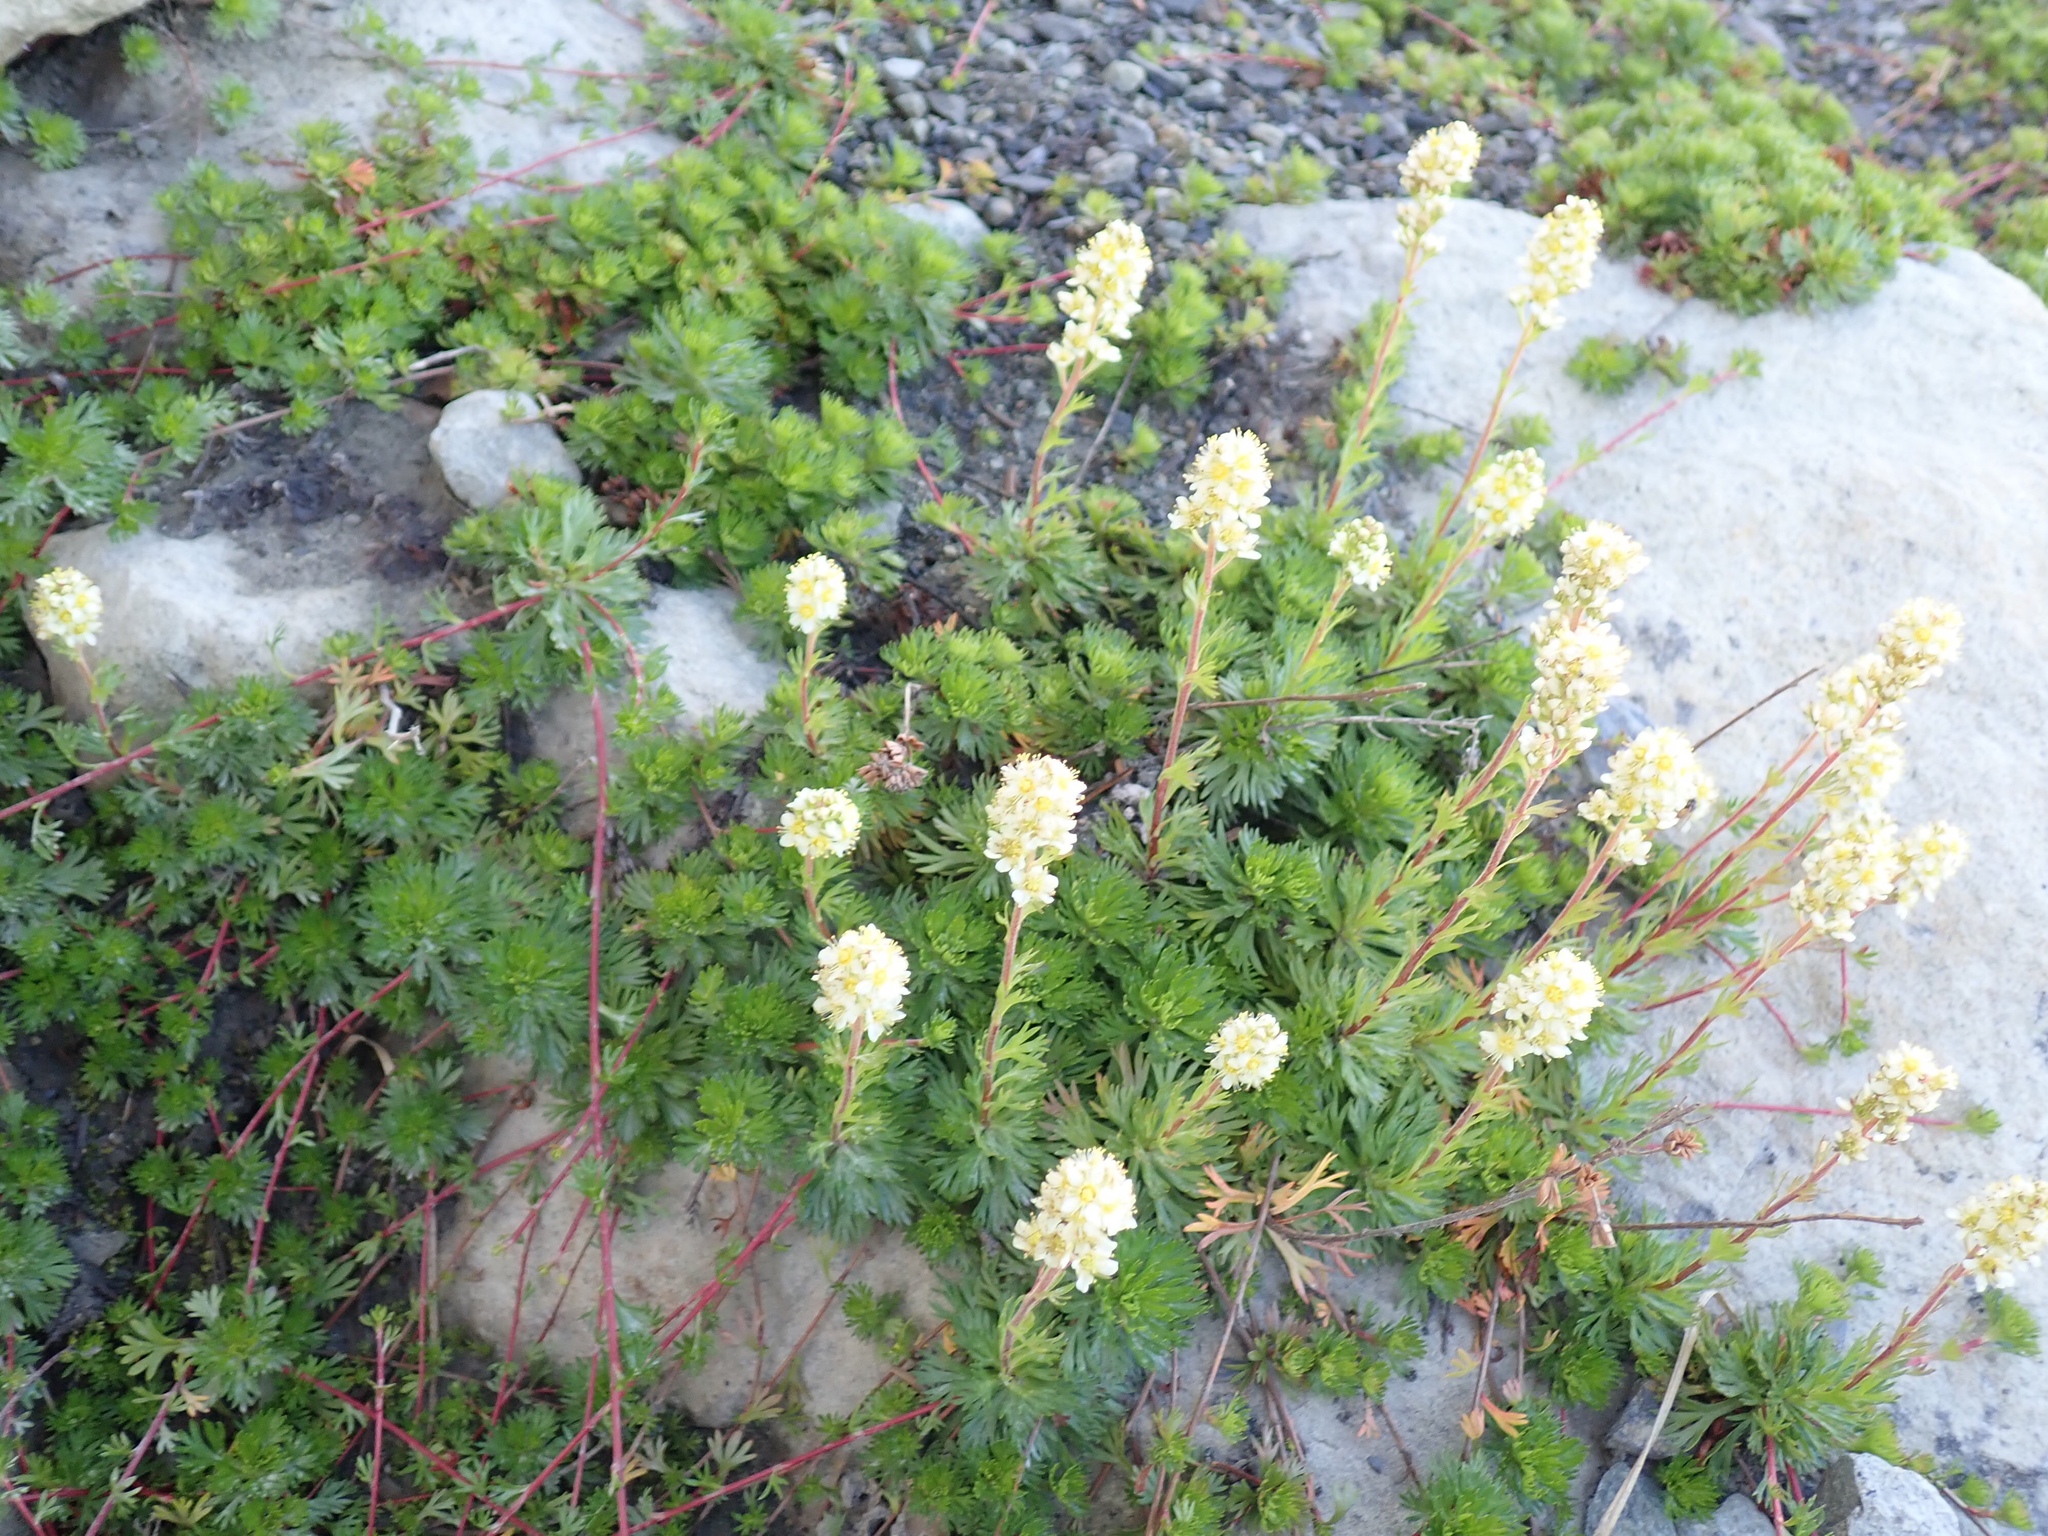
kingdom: Plantae
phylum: Tracheophyta
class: Magnoliopsida
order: Rosales
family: Rosaceae
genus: Luetkea
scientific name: Luetkea pectinata
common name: Partridgefoot
